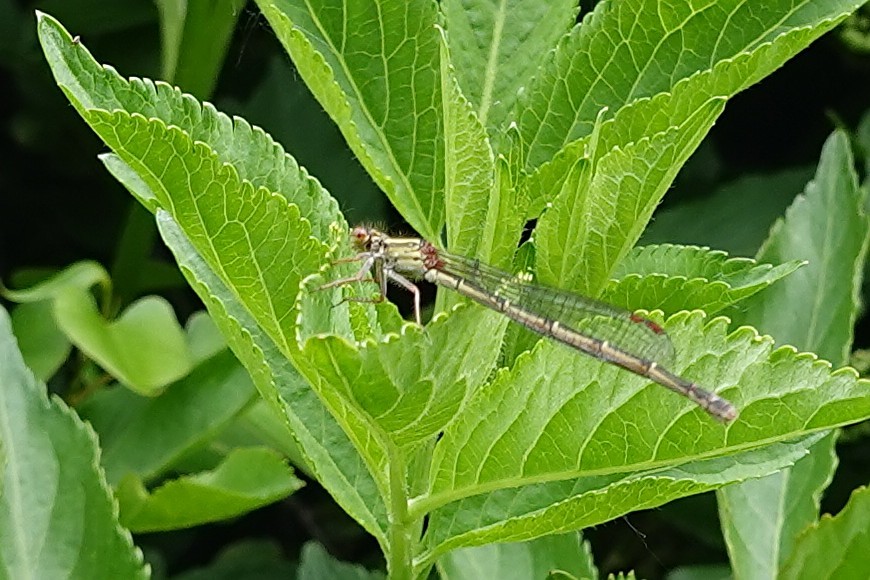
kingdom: Animalia
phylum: Arthropoda
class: Insecta
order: Odonata
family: Coenagrionidae
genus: Xanthocnemis
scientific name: Xanthocnemis zealandica
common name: Common redcoat damselfly
